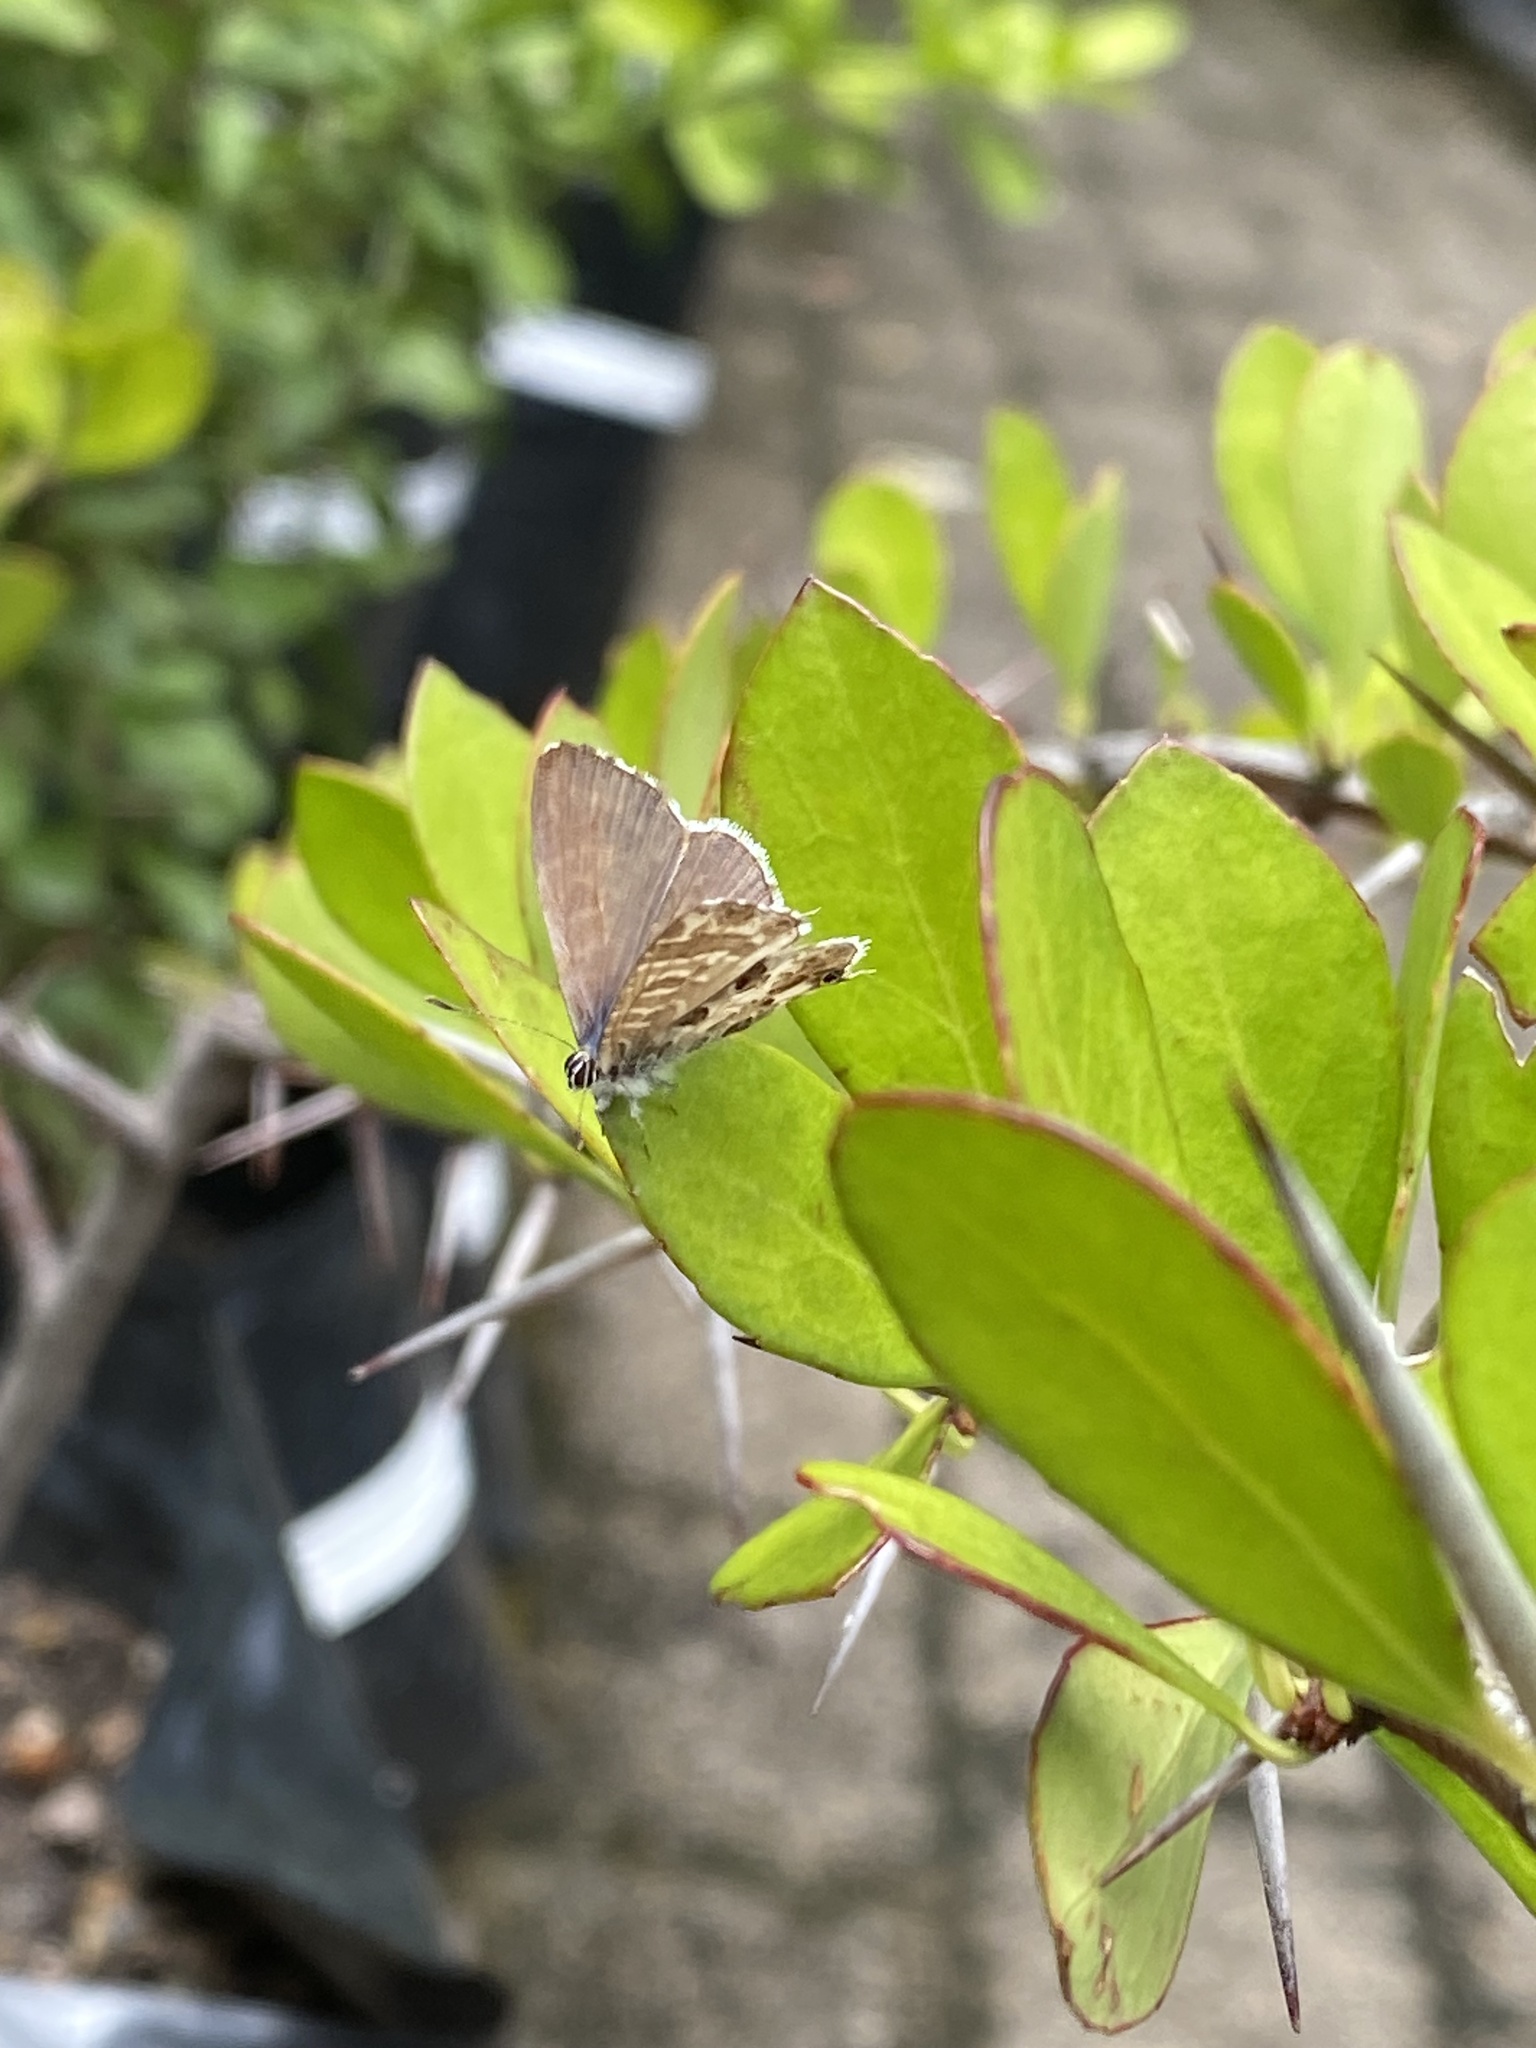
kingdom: Animalia
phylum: Arthropoda
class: Insecta
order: Lepidoptera
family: Lycaenidae
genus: Cacyreus
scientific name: Cacyreus lingeus
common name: Bush bronze
